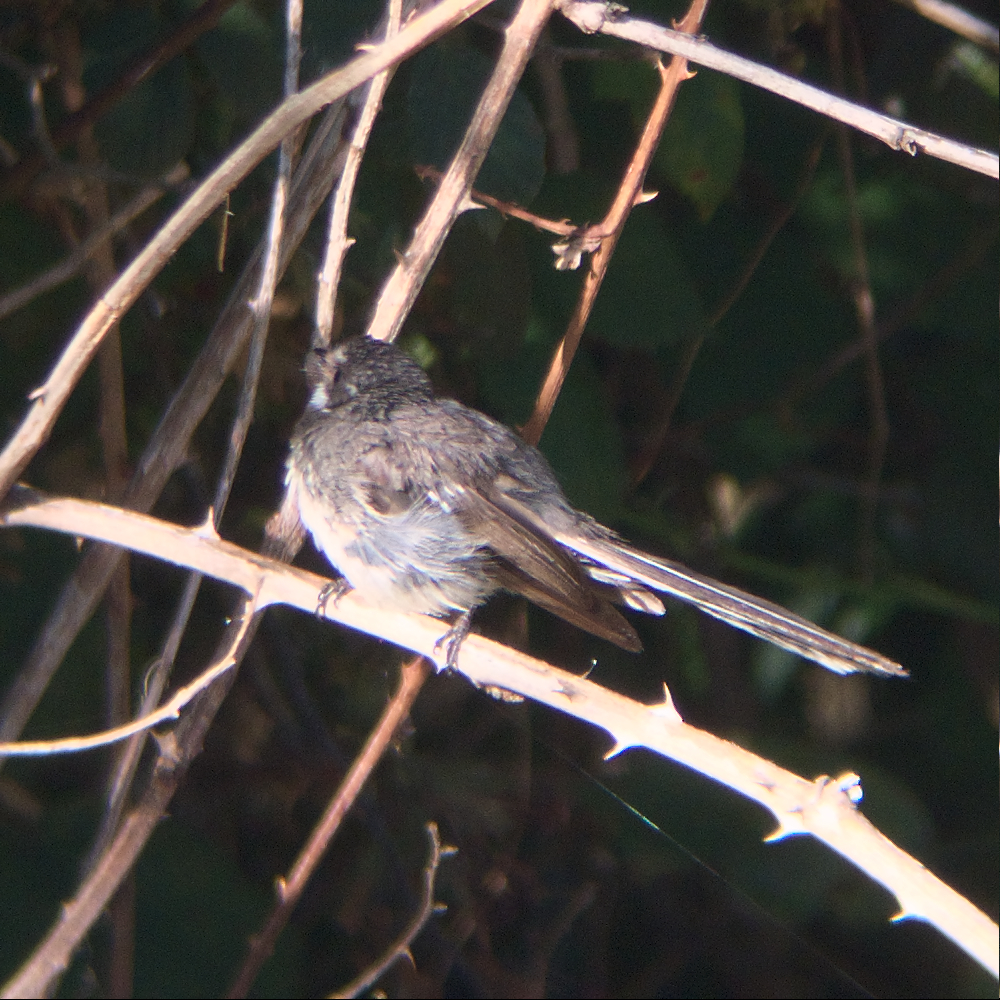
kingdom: Animalia
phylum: Chordata
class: Aves
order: Passeriformes
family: Rhipiduridae
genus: Rhipidura
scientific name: Rhipidura albiscapa
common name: Grey fantail
